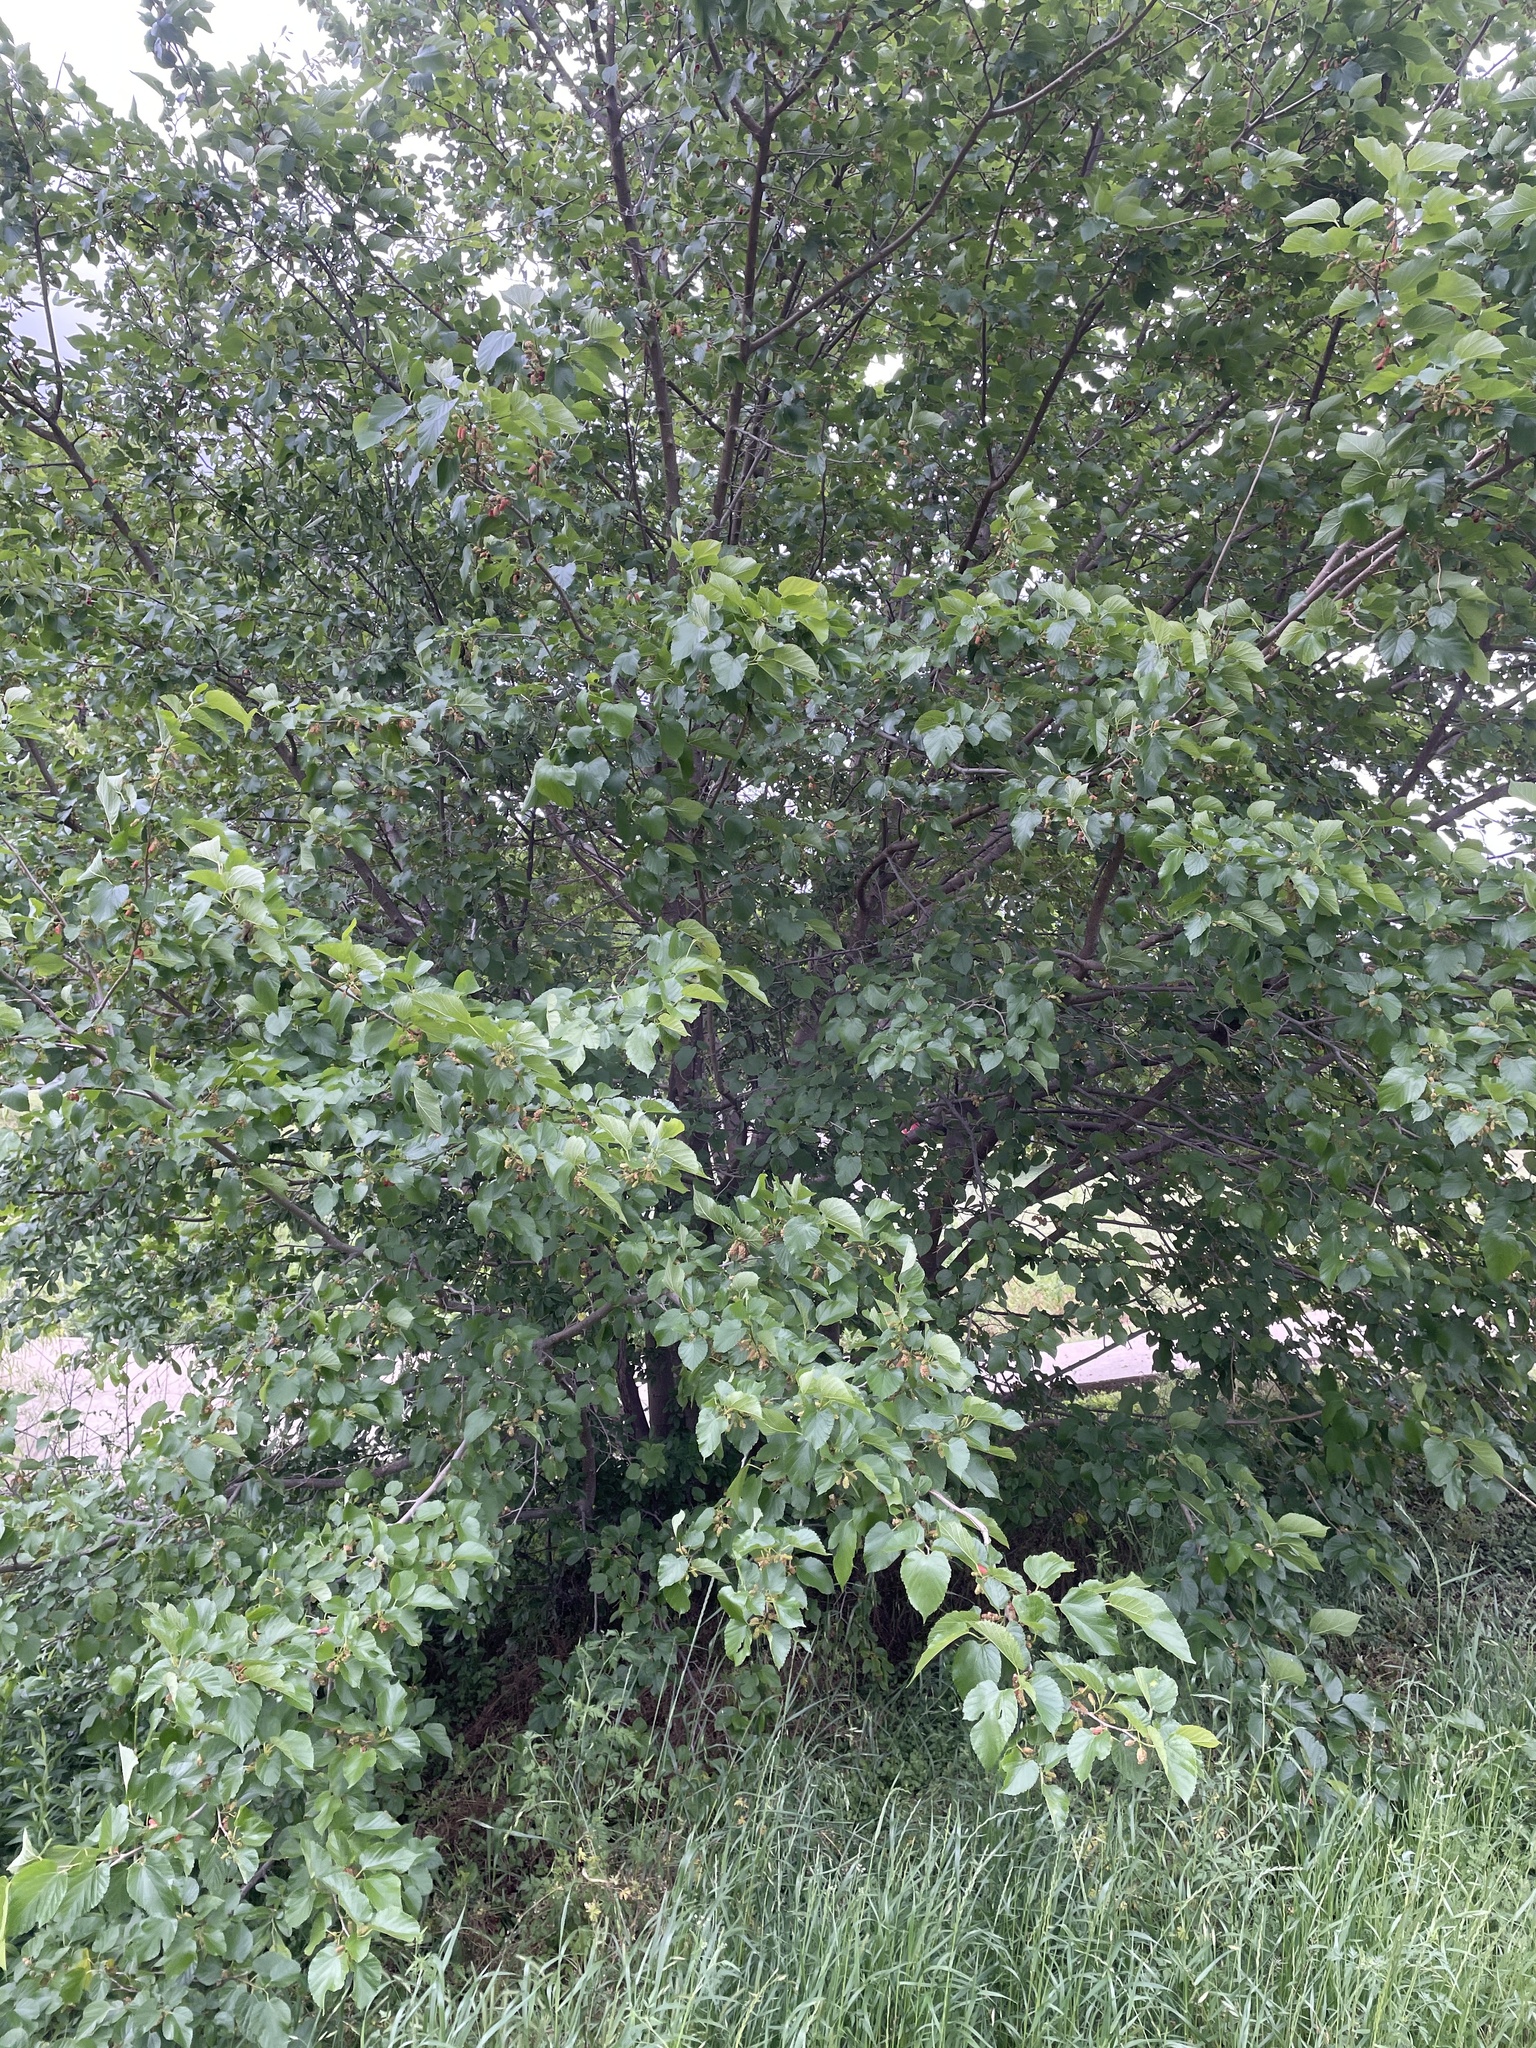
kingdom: Plantae
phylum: Tracheophyta
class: Magnoliopsida
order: Rosales
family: Moraceae
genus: Morus
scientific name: Morus alba
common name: White mulberry
